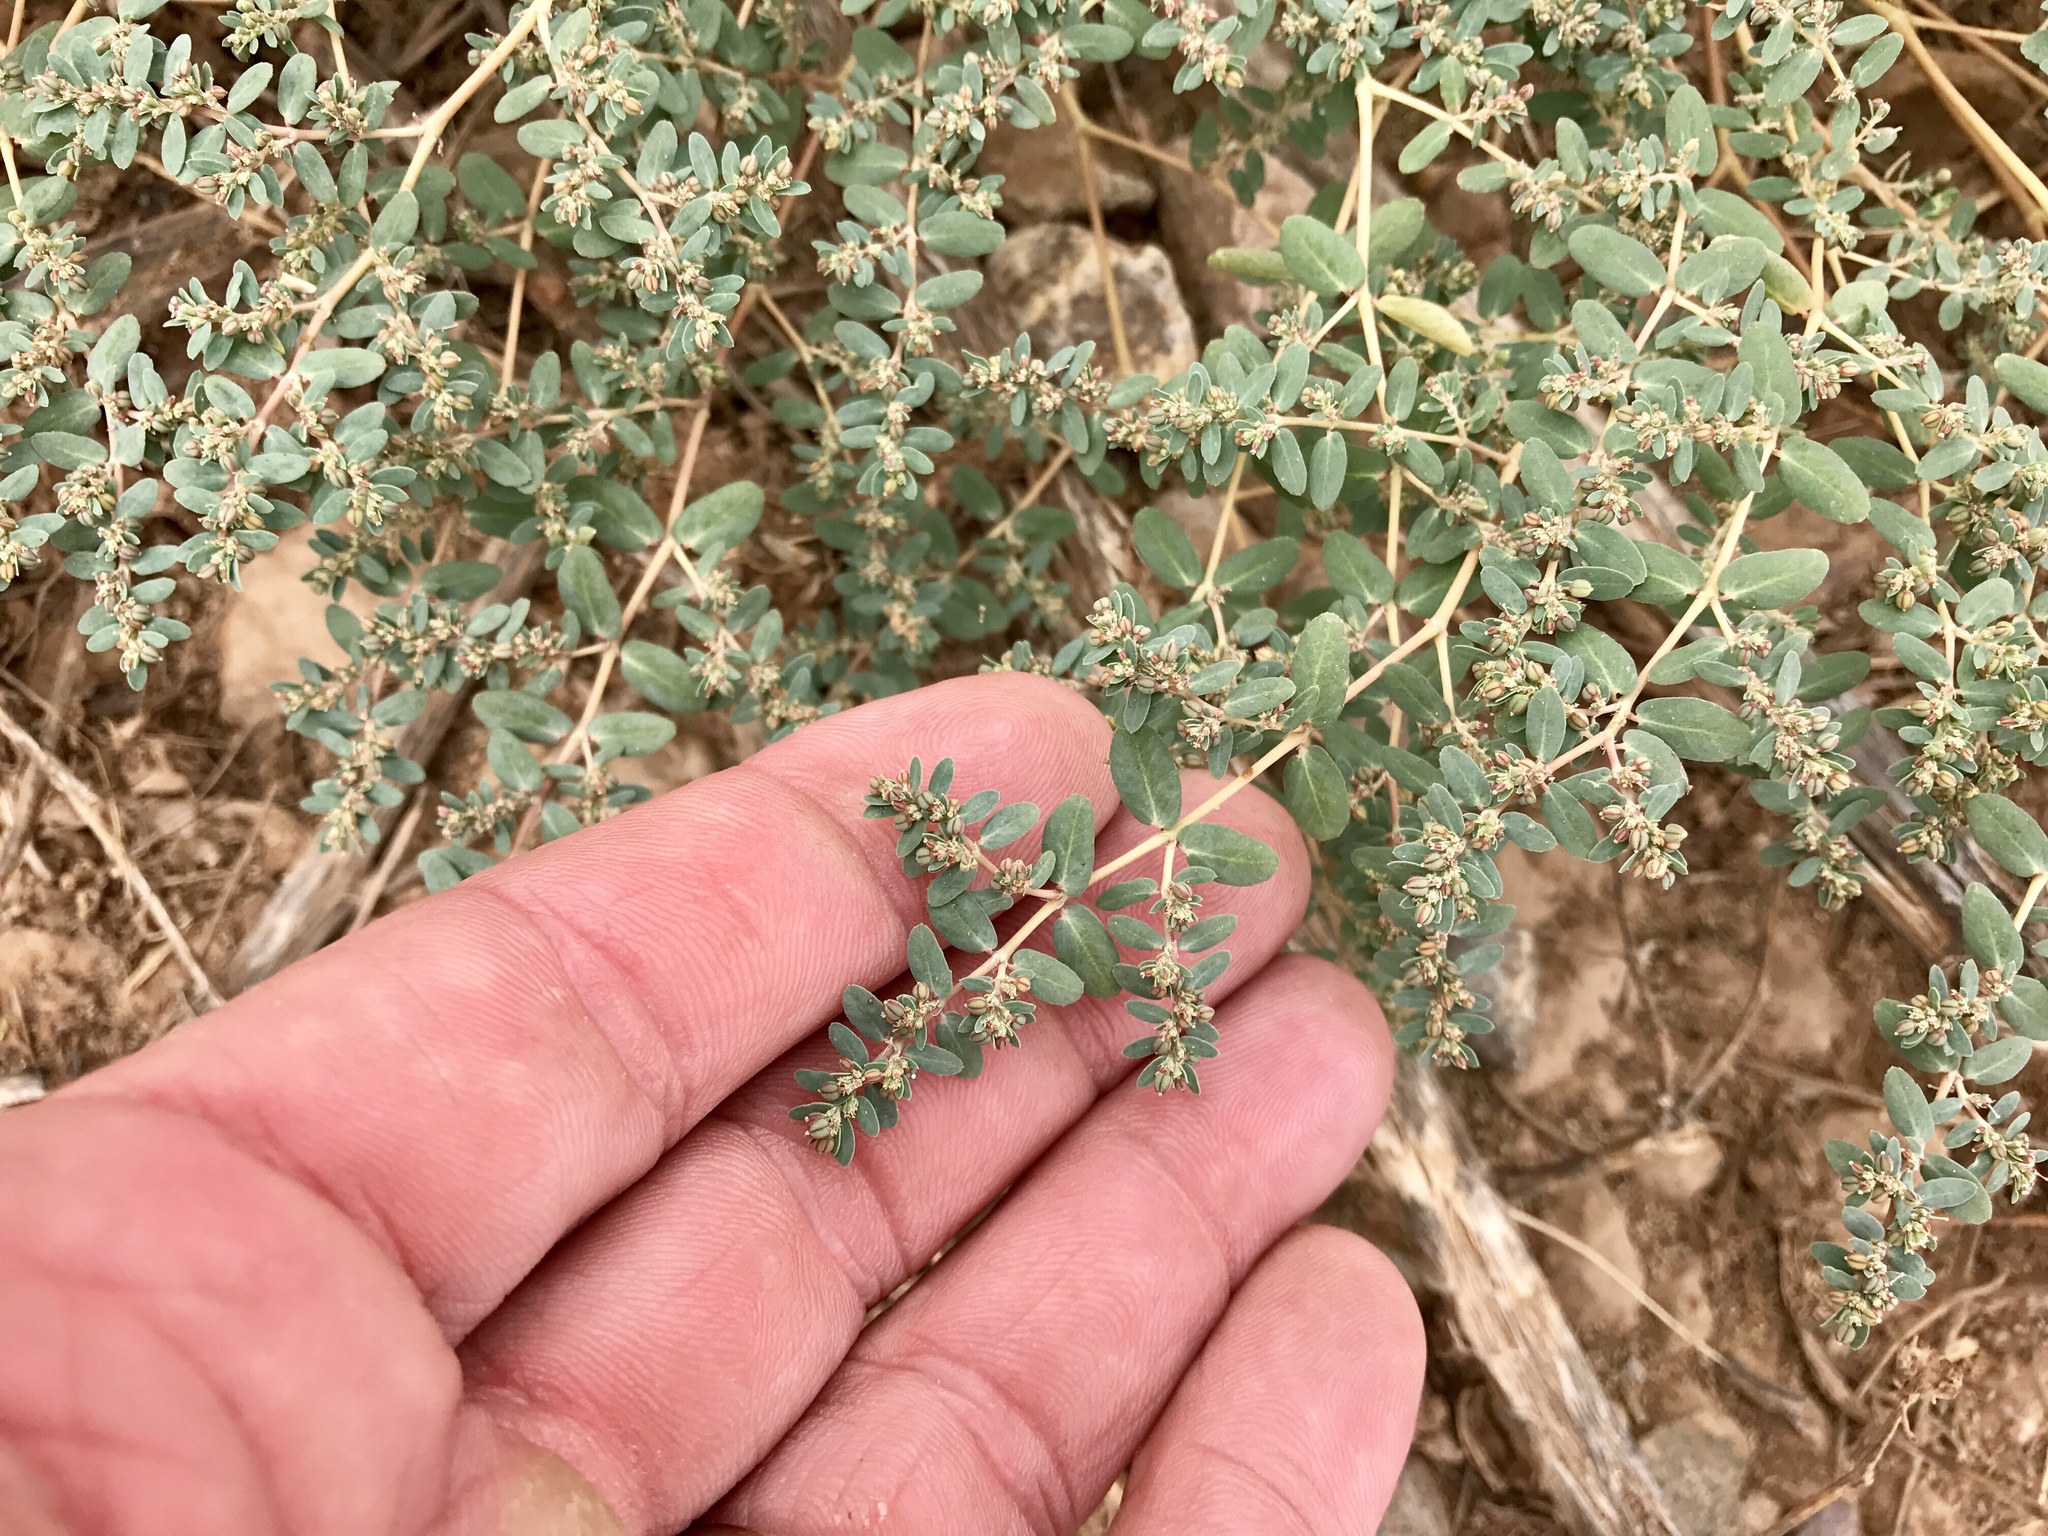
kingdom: Plantae
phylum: Tracheophyta
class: Magnoliopsida
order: Malpighiales
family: Euphorbiaceae
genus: Euphorbia
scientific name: Euphorbia abramsiana
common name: Abram's spurge
